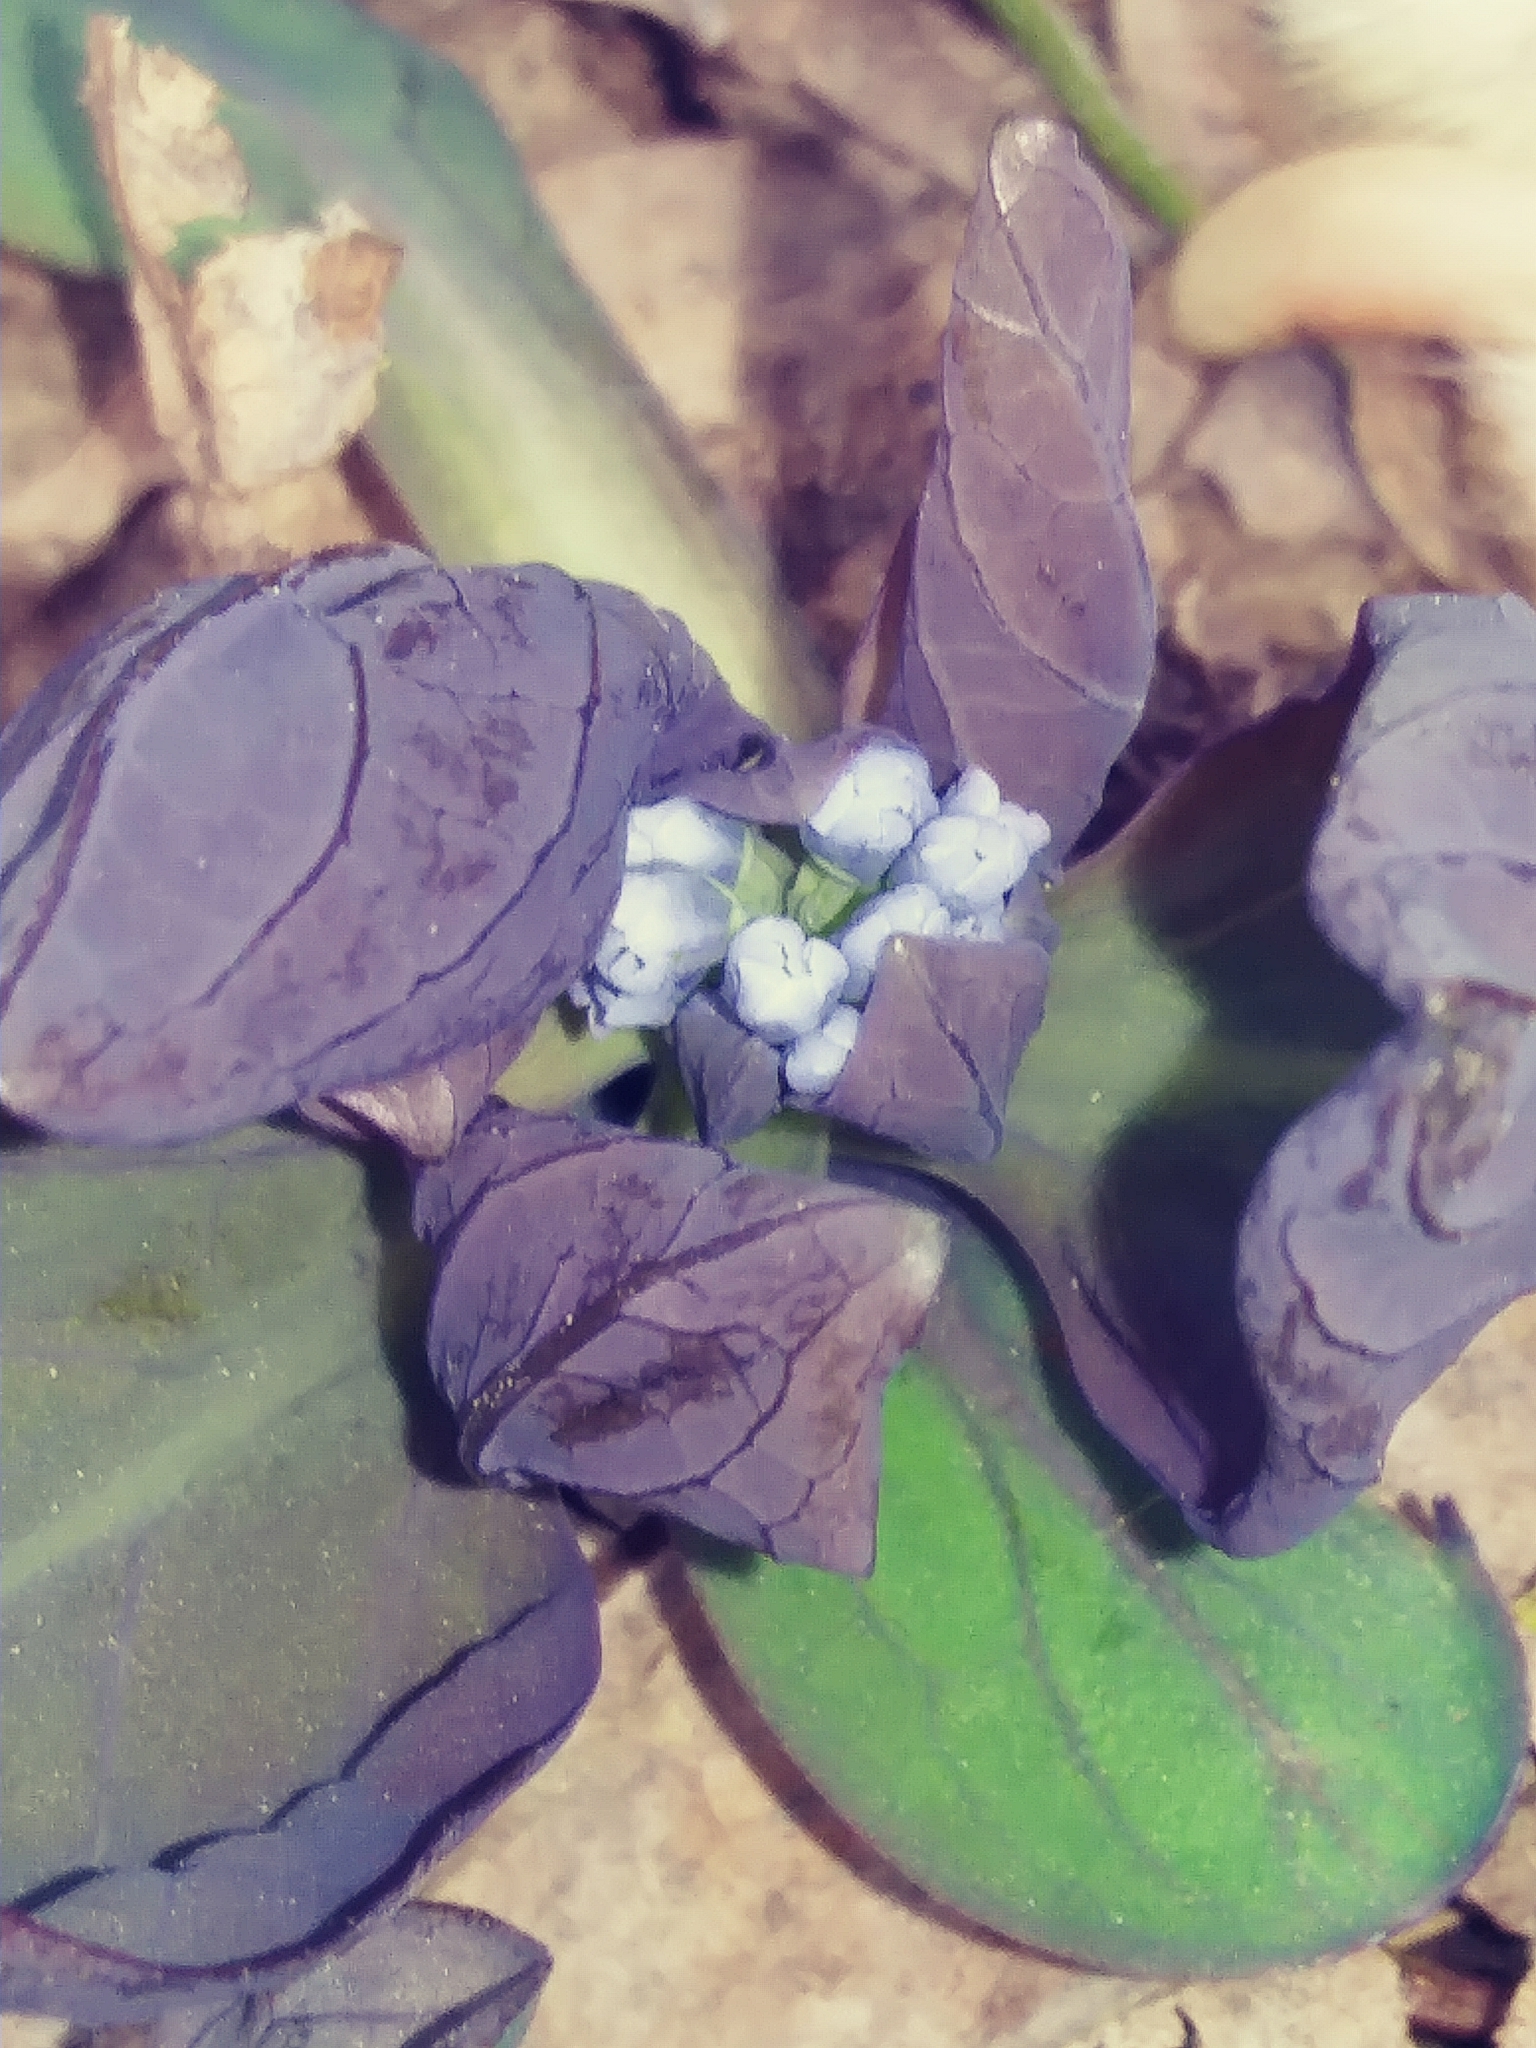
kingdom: Plantae
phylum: Tracheophyta
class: Magnoliopsida
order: Boraginales
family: Boraginaceae
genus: Mertensia
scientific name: Mertensia virginica
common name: Virginia bluebells
